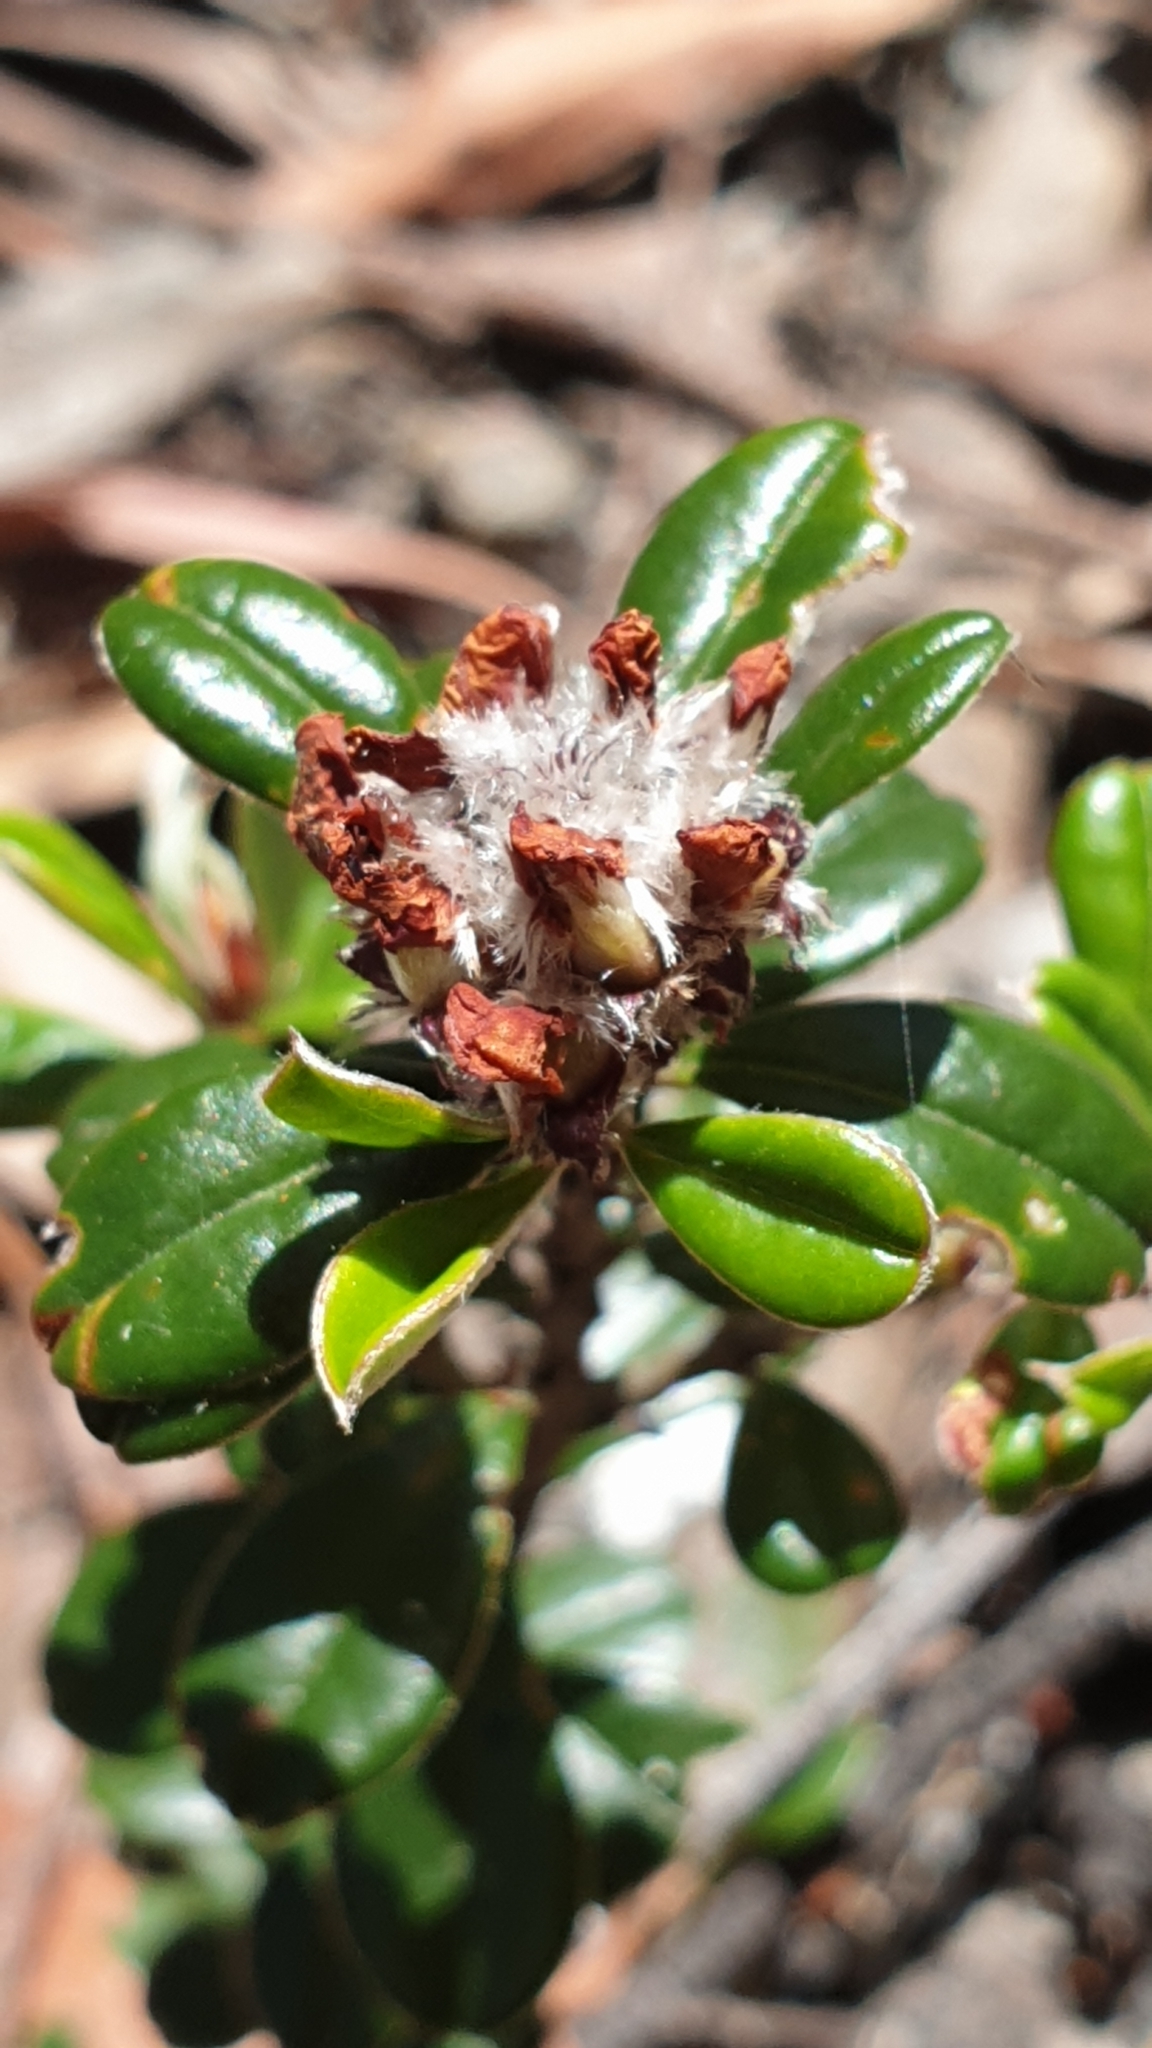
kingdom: Plantae
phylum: Tracheophyta
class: Magnoliopsida
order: Fabales
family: Fabaceae
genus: Pultenaea
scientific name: Pultenaea pycnocephala
